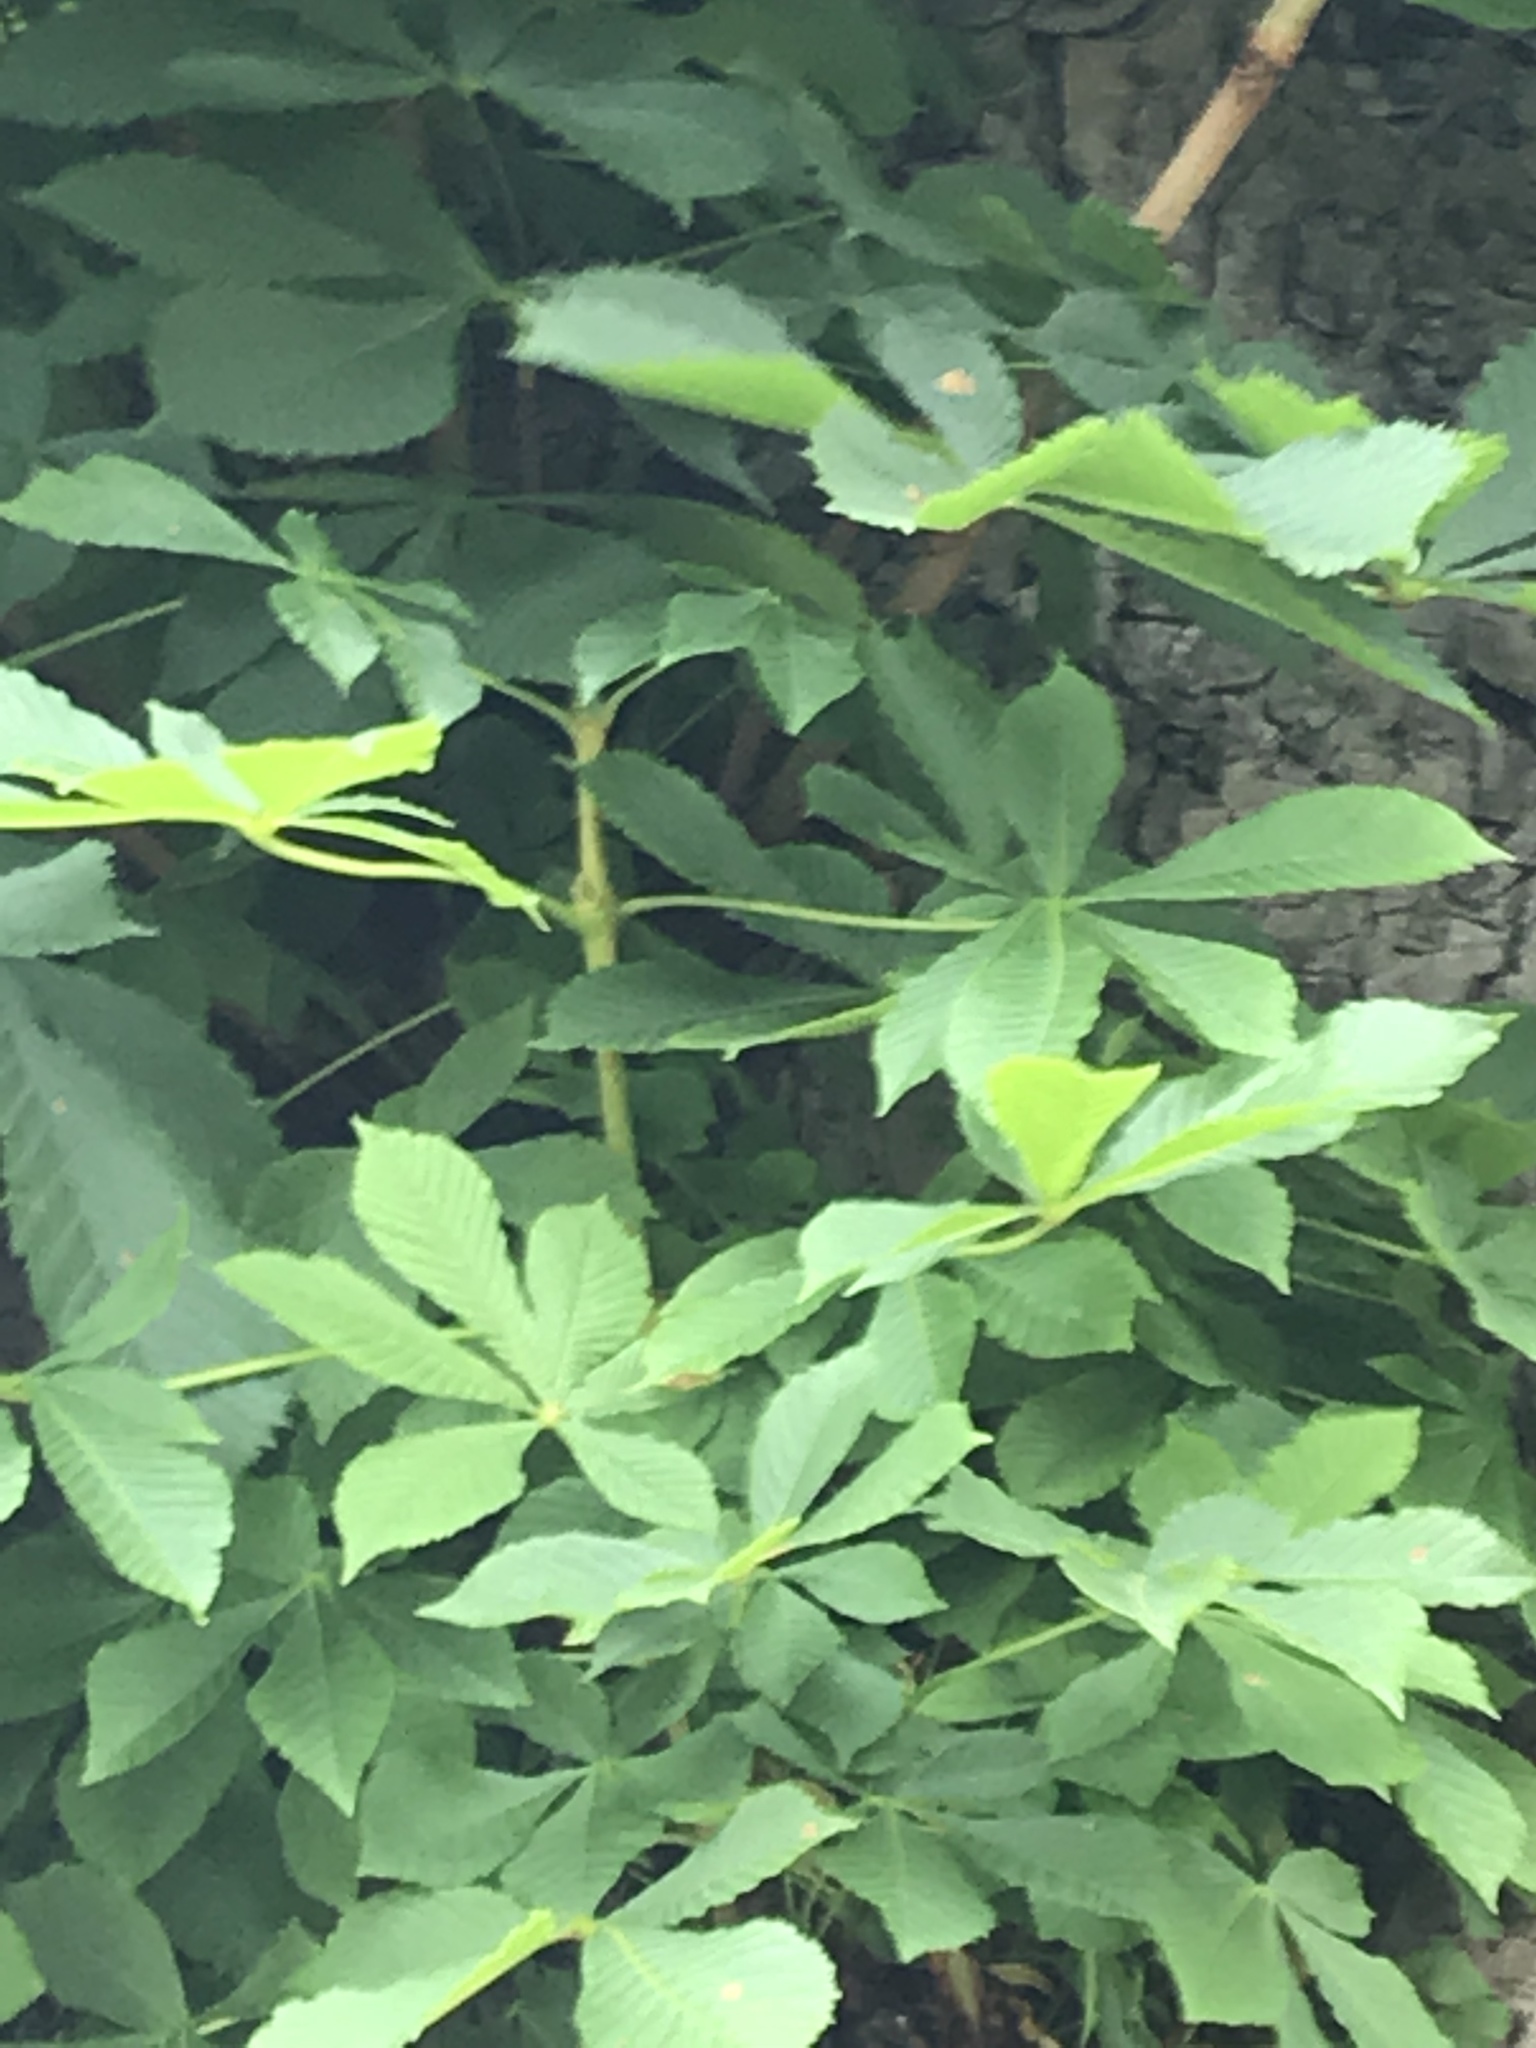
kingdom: Plantae
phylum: Tracheophyta
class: Magnoliopsida
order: Sapindales
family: Sapindaceae
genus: Aesculus
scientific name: Aesculus hippocastanum
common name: Horse-chestnut
